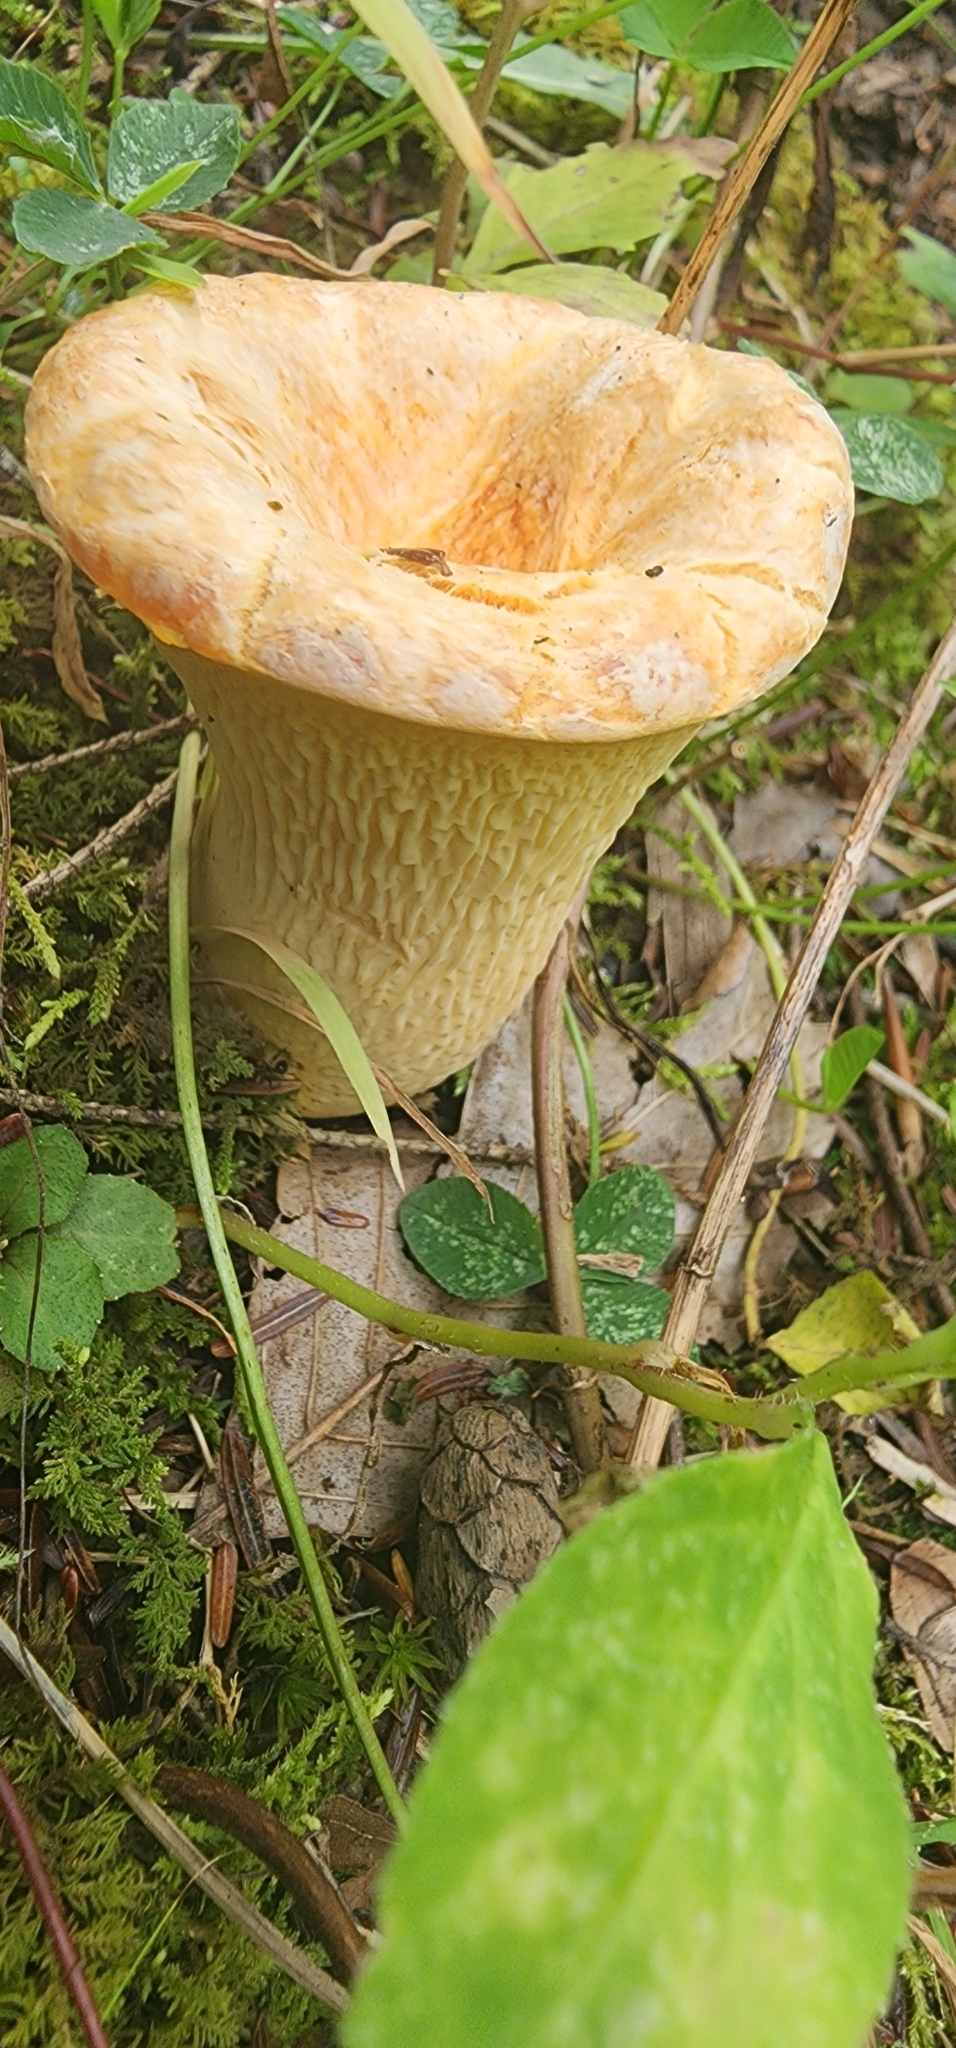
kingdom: Fungi
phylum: Basidiomycota
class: Agaricomycetes
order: Gomphales
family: Gomphaceae
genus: Turbinellus
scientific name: Turbinellus floccosus
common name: Scaly chanterelle
